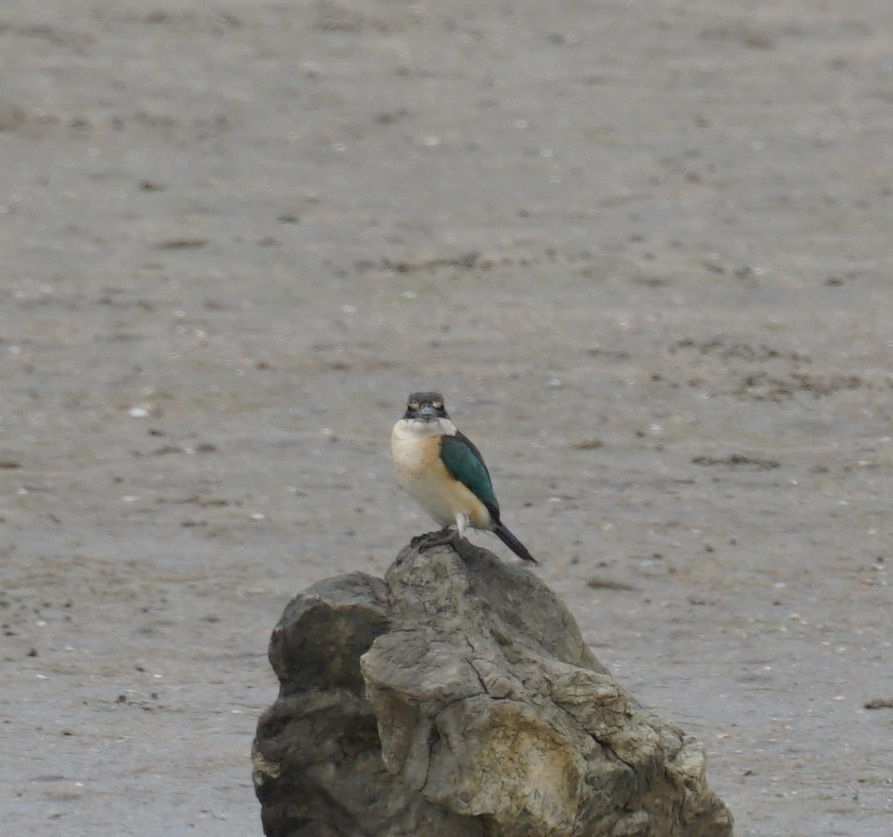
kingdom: Animalia
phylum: Chordata
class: Aves
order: Coraciiformes
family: Alcedinidae
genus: Todiramphus
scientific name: Todiramphus sanctus
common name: Sacred kingfisher
